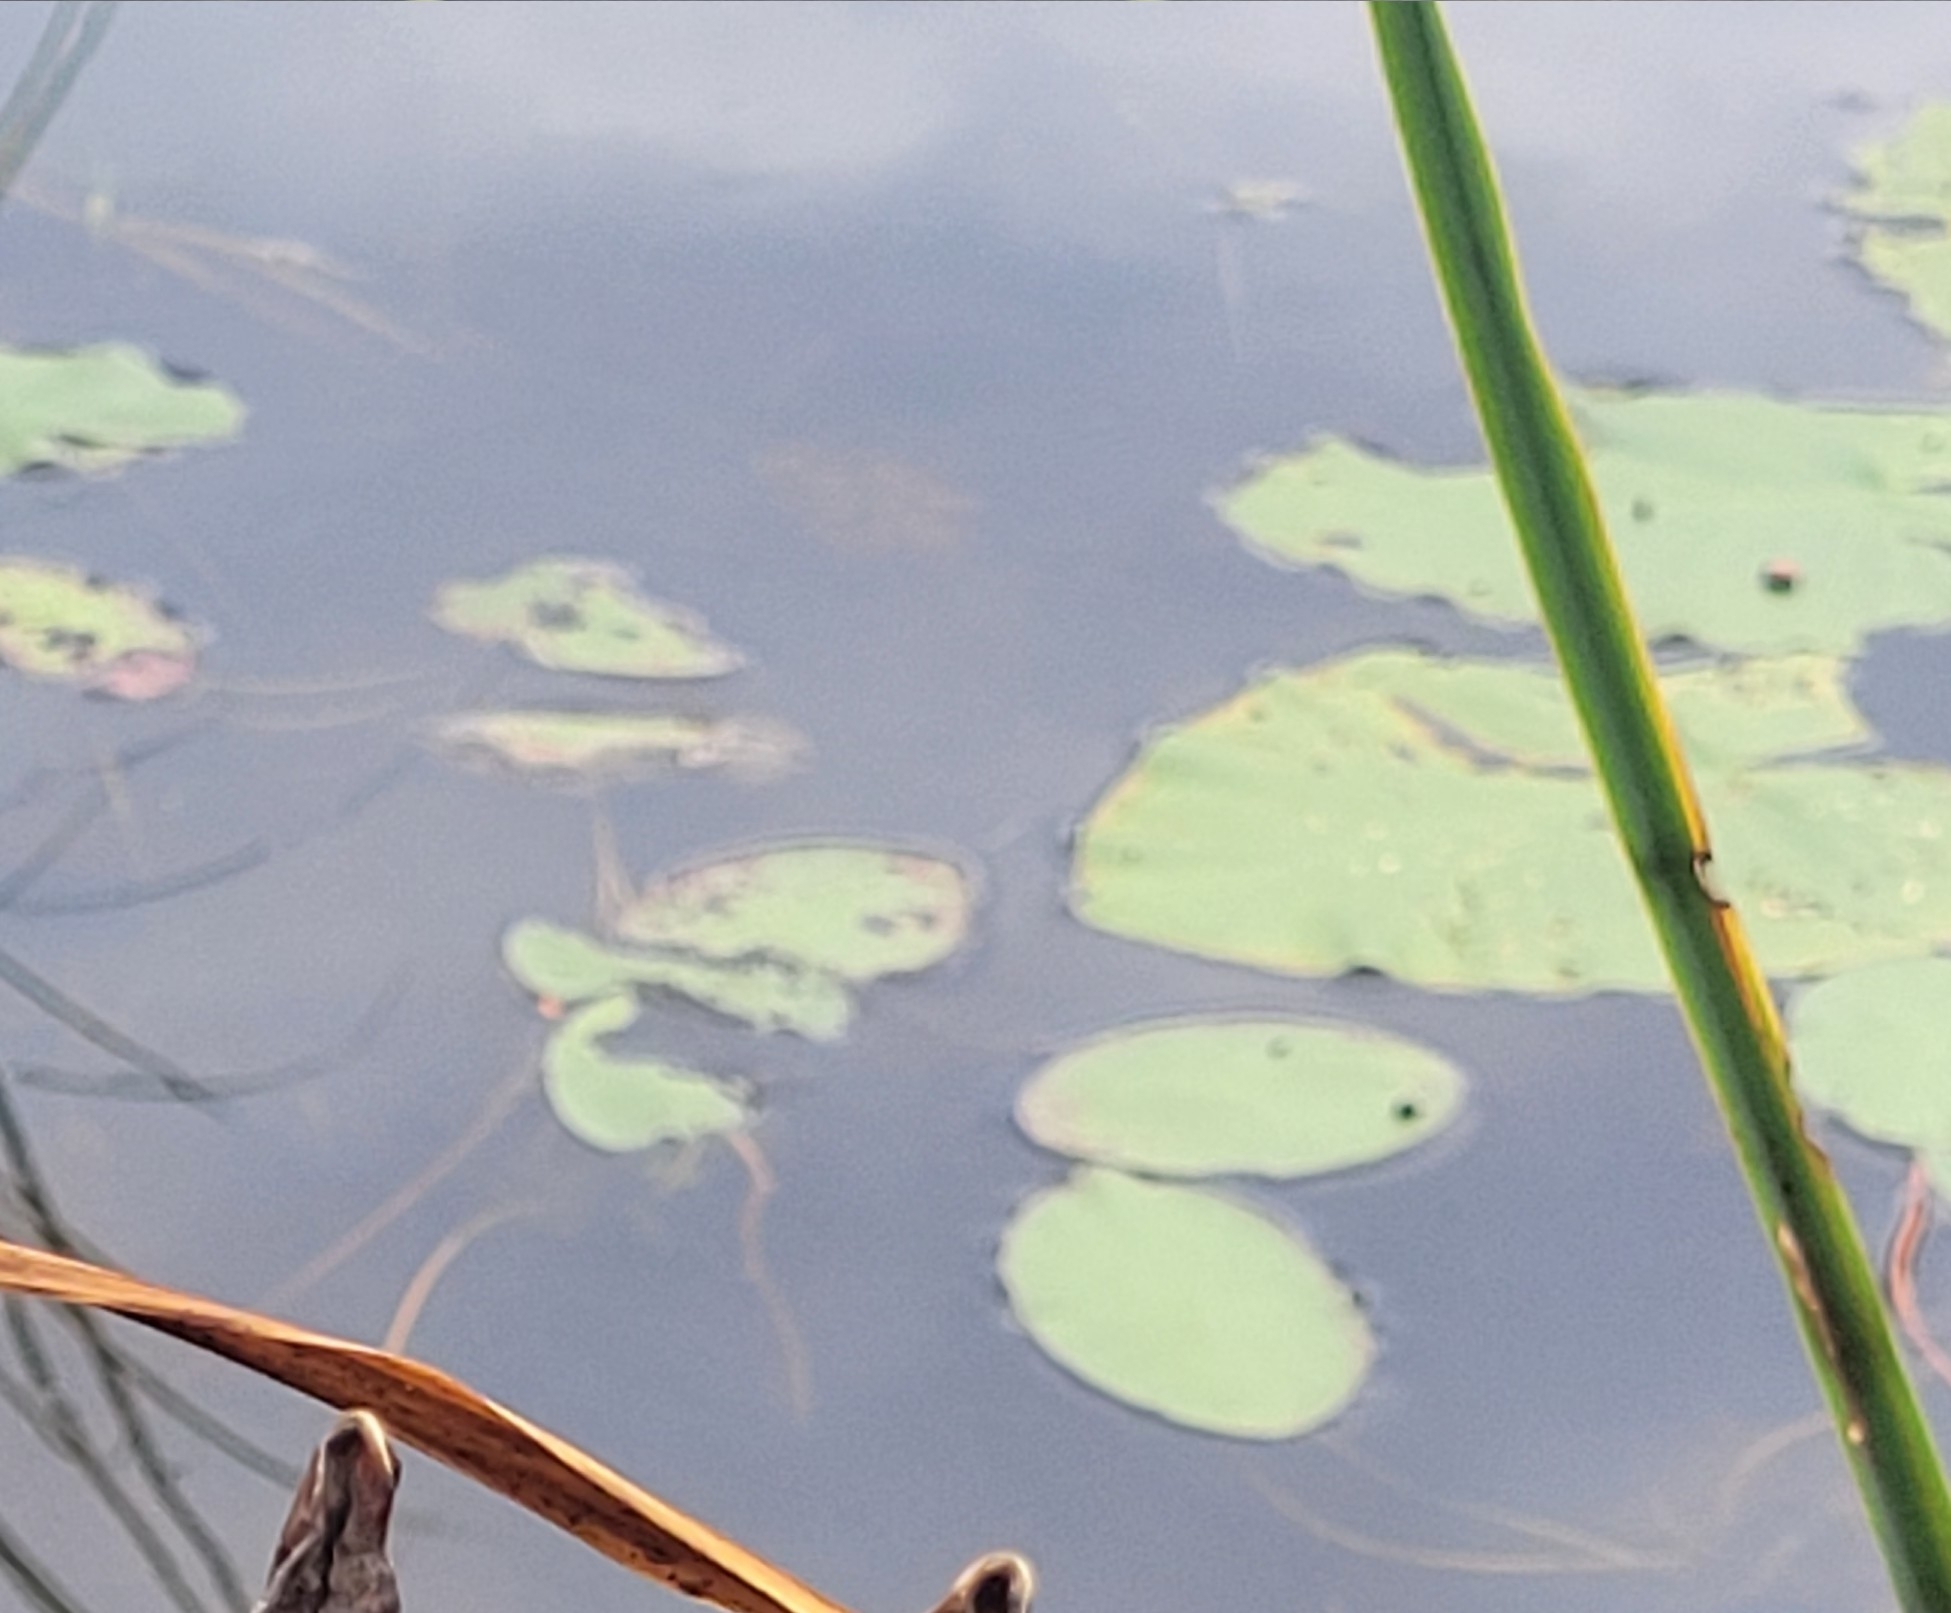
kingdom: Plantae
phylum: Tracheophyta
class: Magnoliopsida
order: Nymphaeales
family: Cabombaceae
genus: Brasenia
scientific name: Brasenia schreberi
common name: Water-shield
